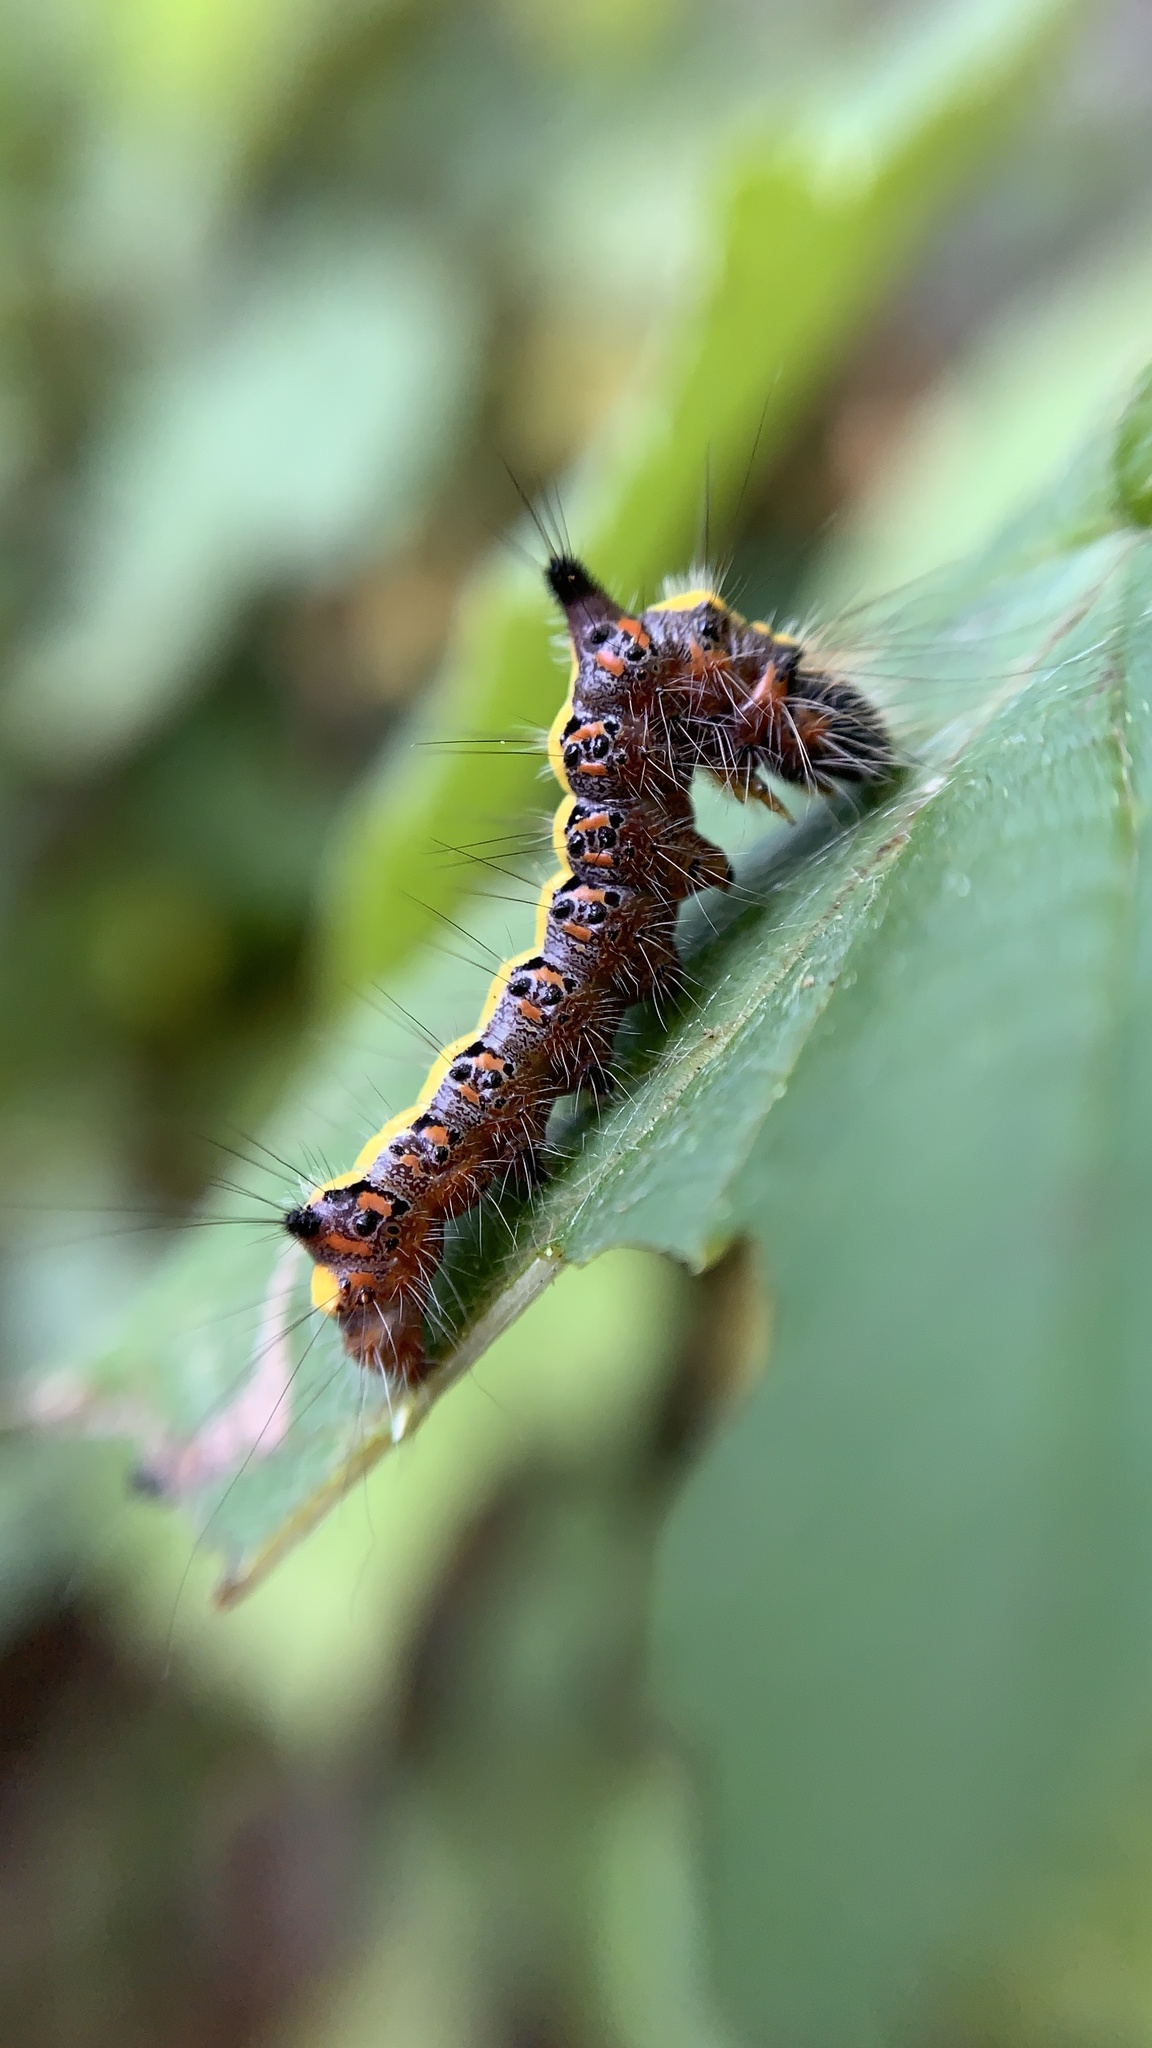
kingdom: Animalia
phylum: Arthropoda
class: Insecta
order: Lepidoptera
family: Noctuidae
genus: Acronicta
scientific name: Acronicta psi
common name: Grey dagger
